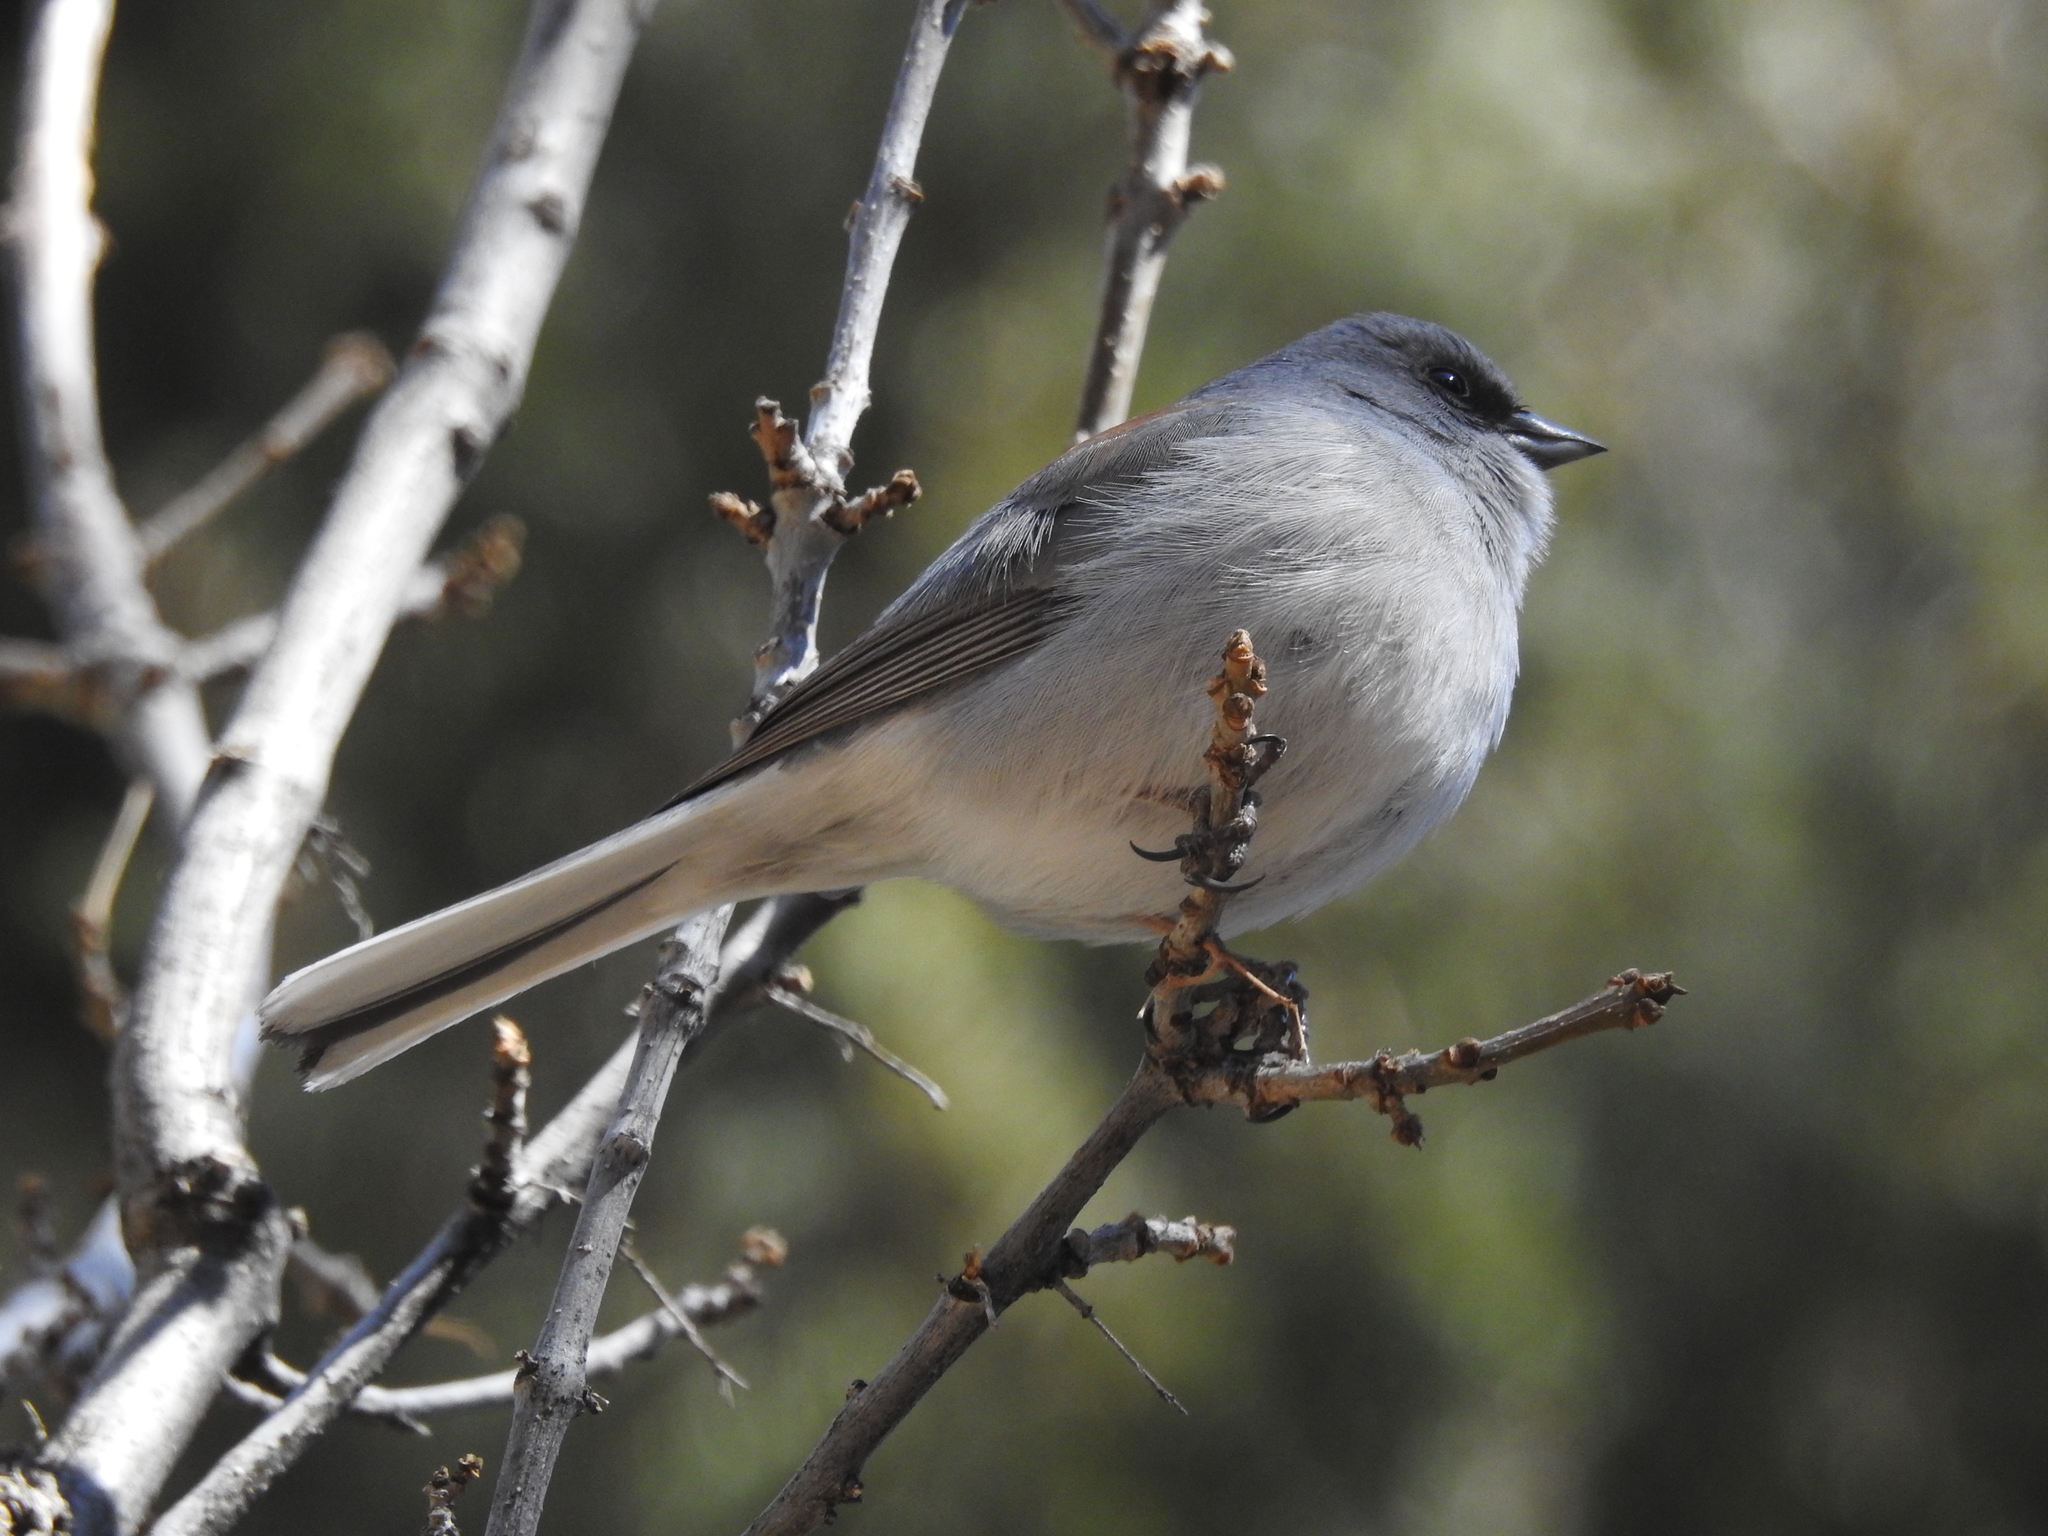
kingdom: Animalia
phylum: Chordata
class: Aves
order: Passeriformes
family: Passerellidae
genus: Junco
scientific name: Junco hyemalis
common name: Dark-eyed junco
